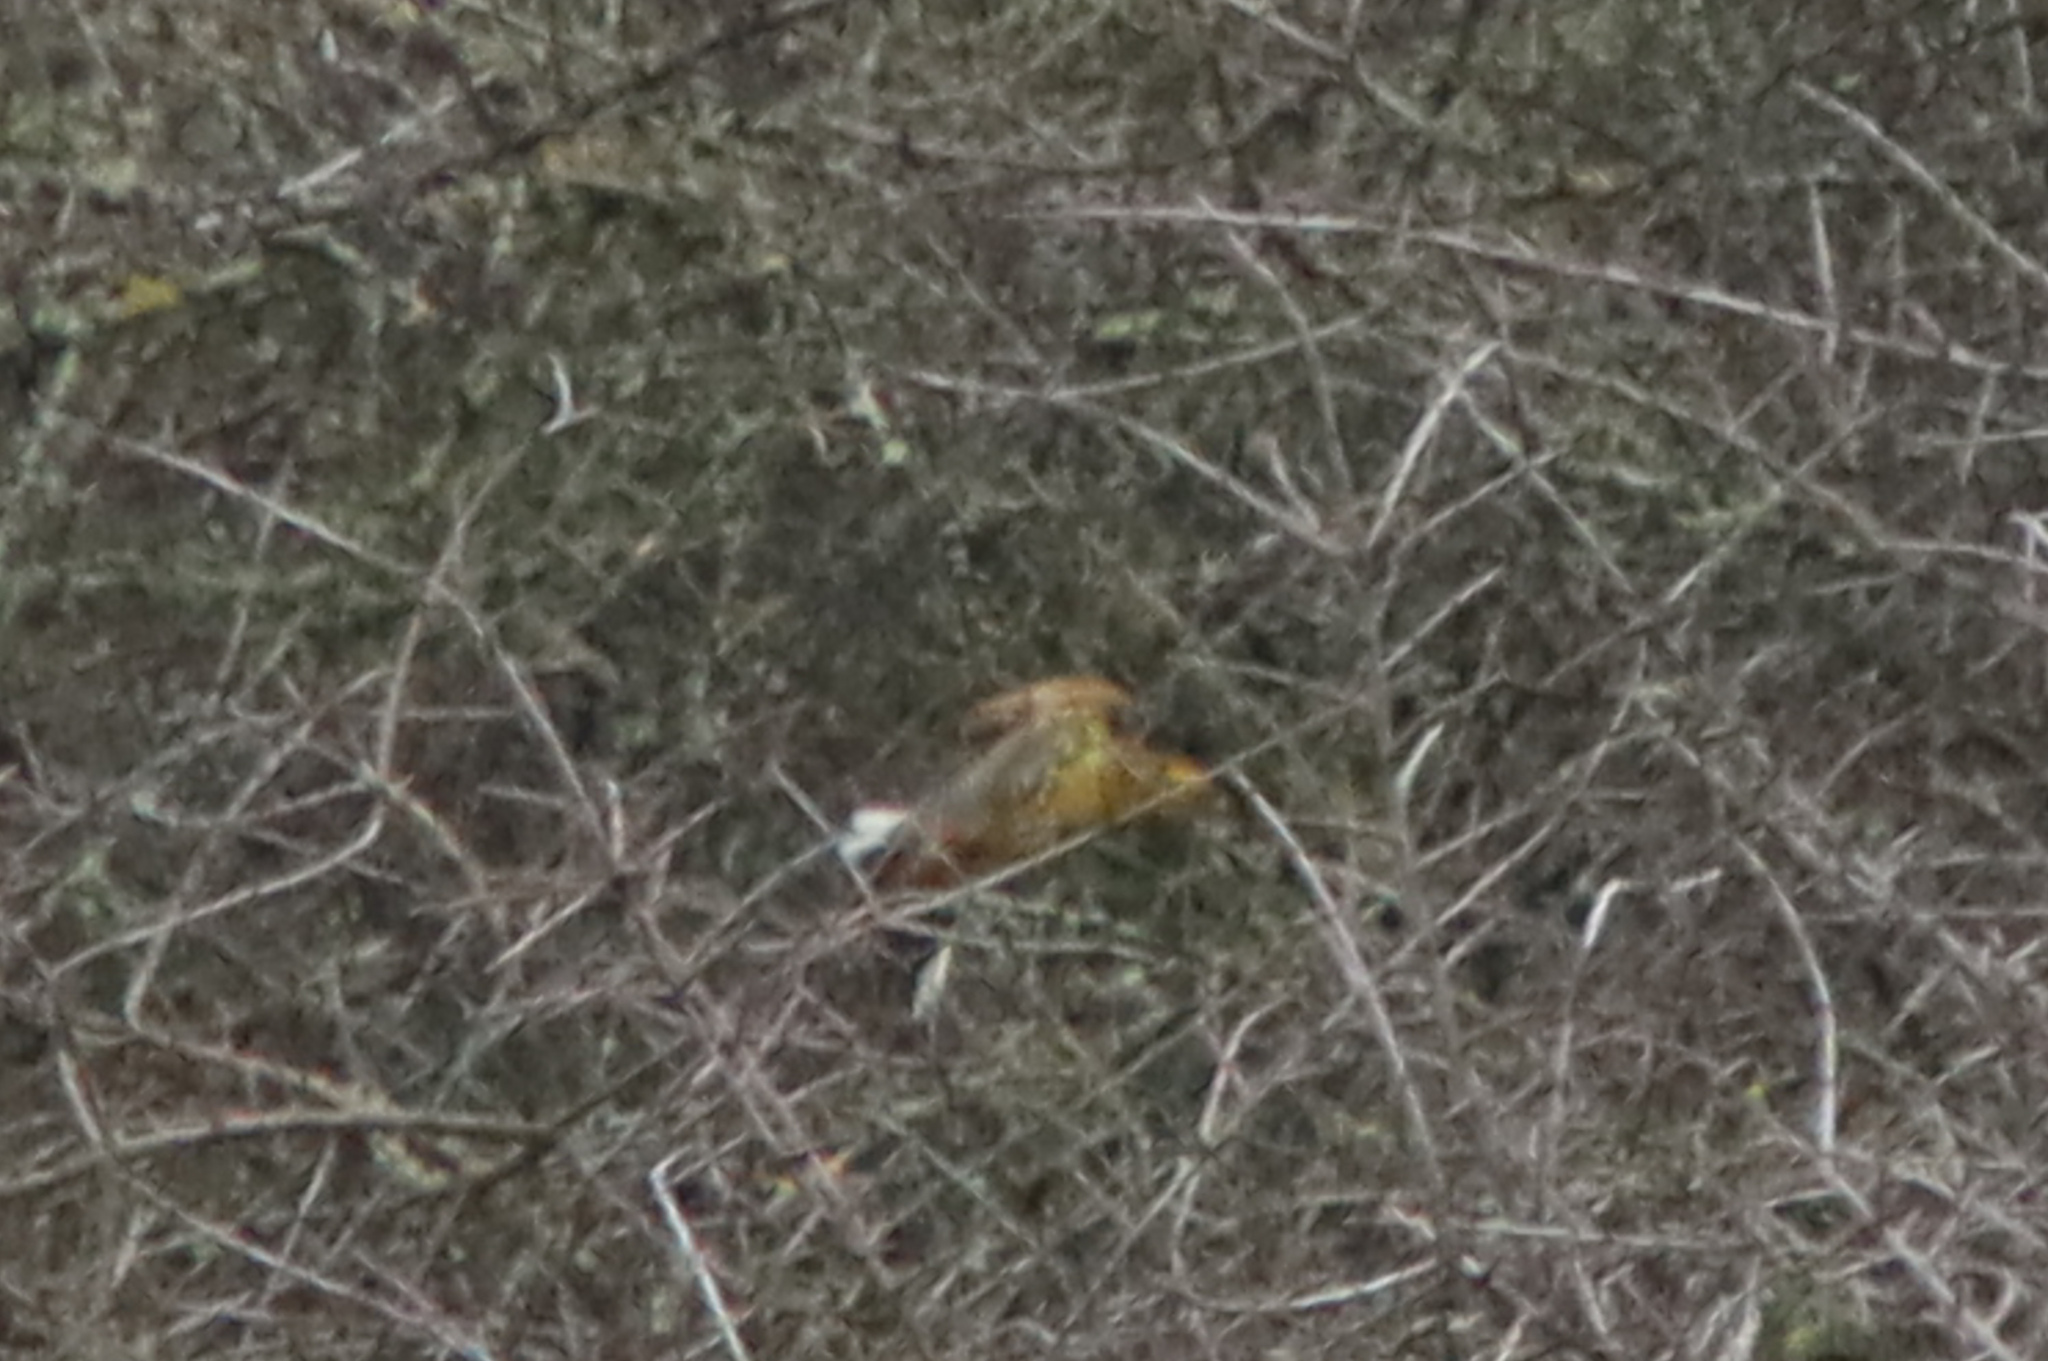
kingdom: Animalia
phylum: Chordata
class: Aves
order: Passeriformes
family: Emberizidae
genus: Emberiza
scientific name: Emberiza citrinella
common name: Yellowhammer
